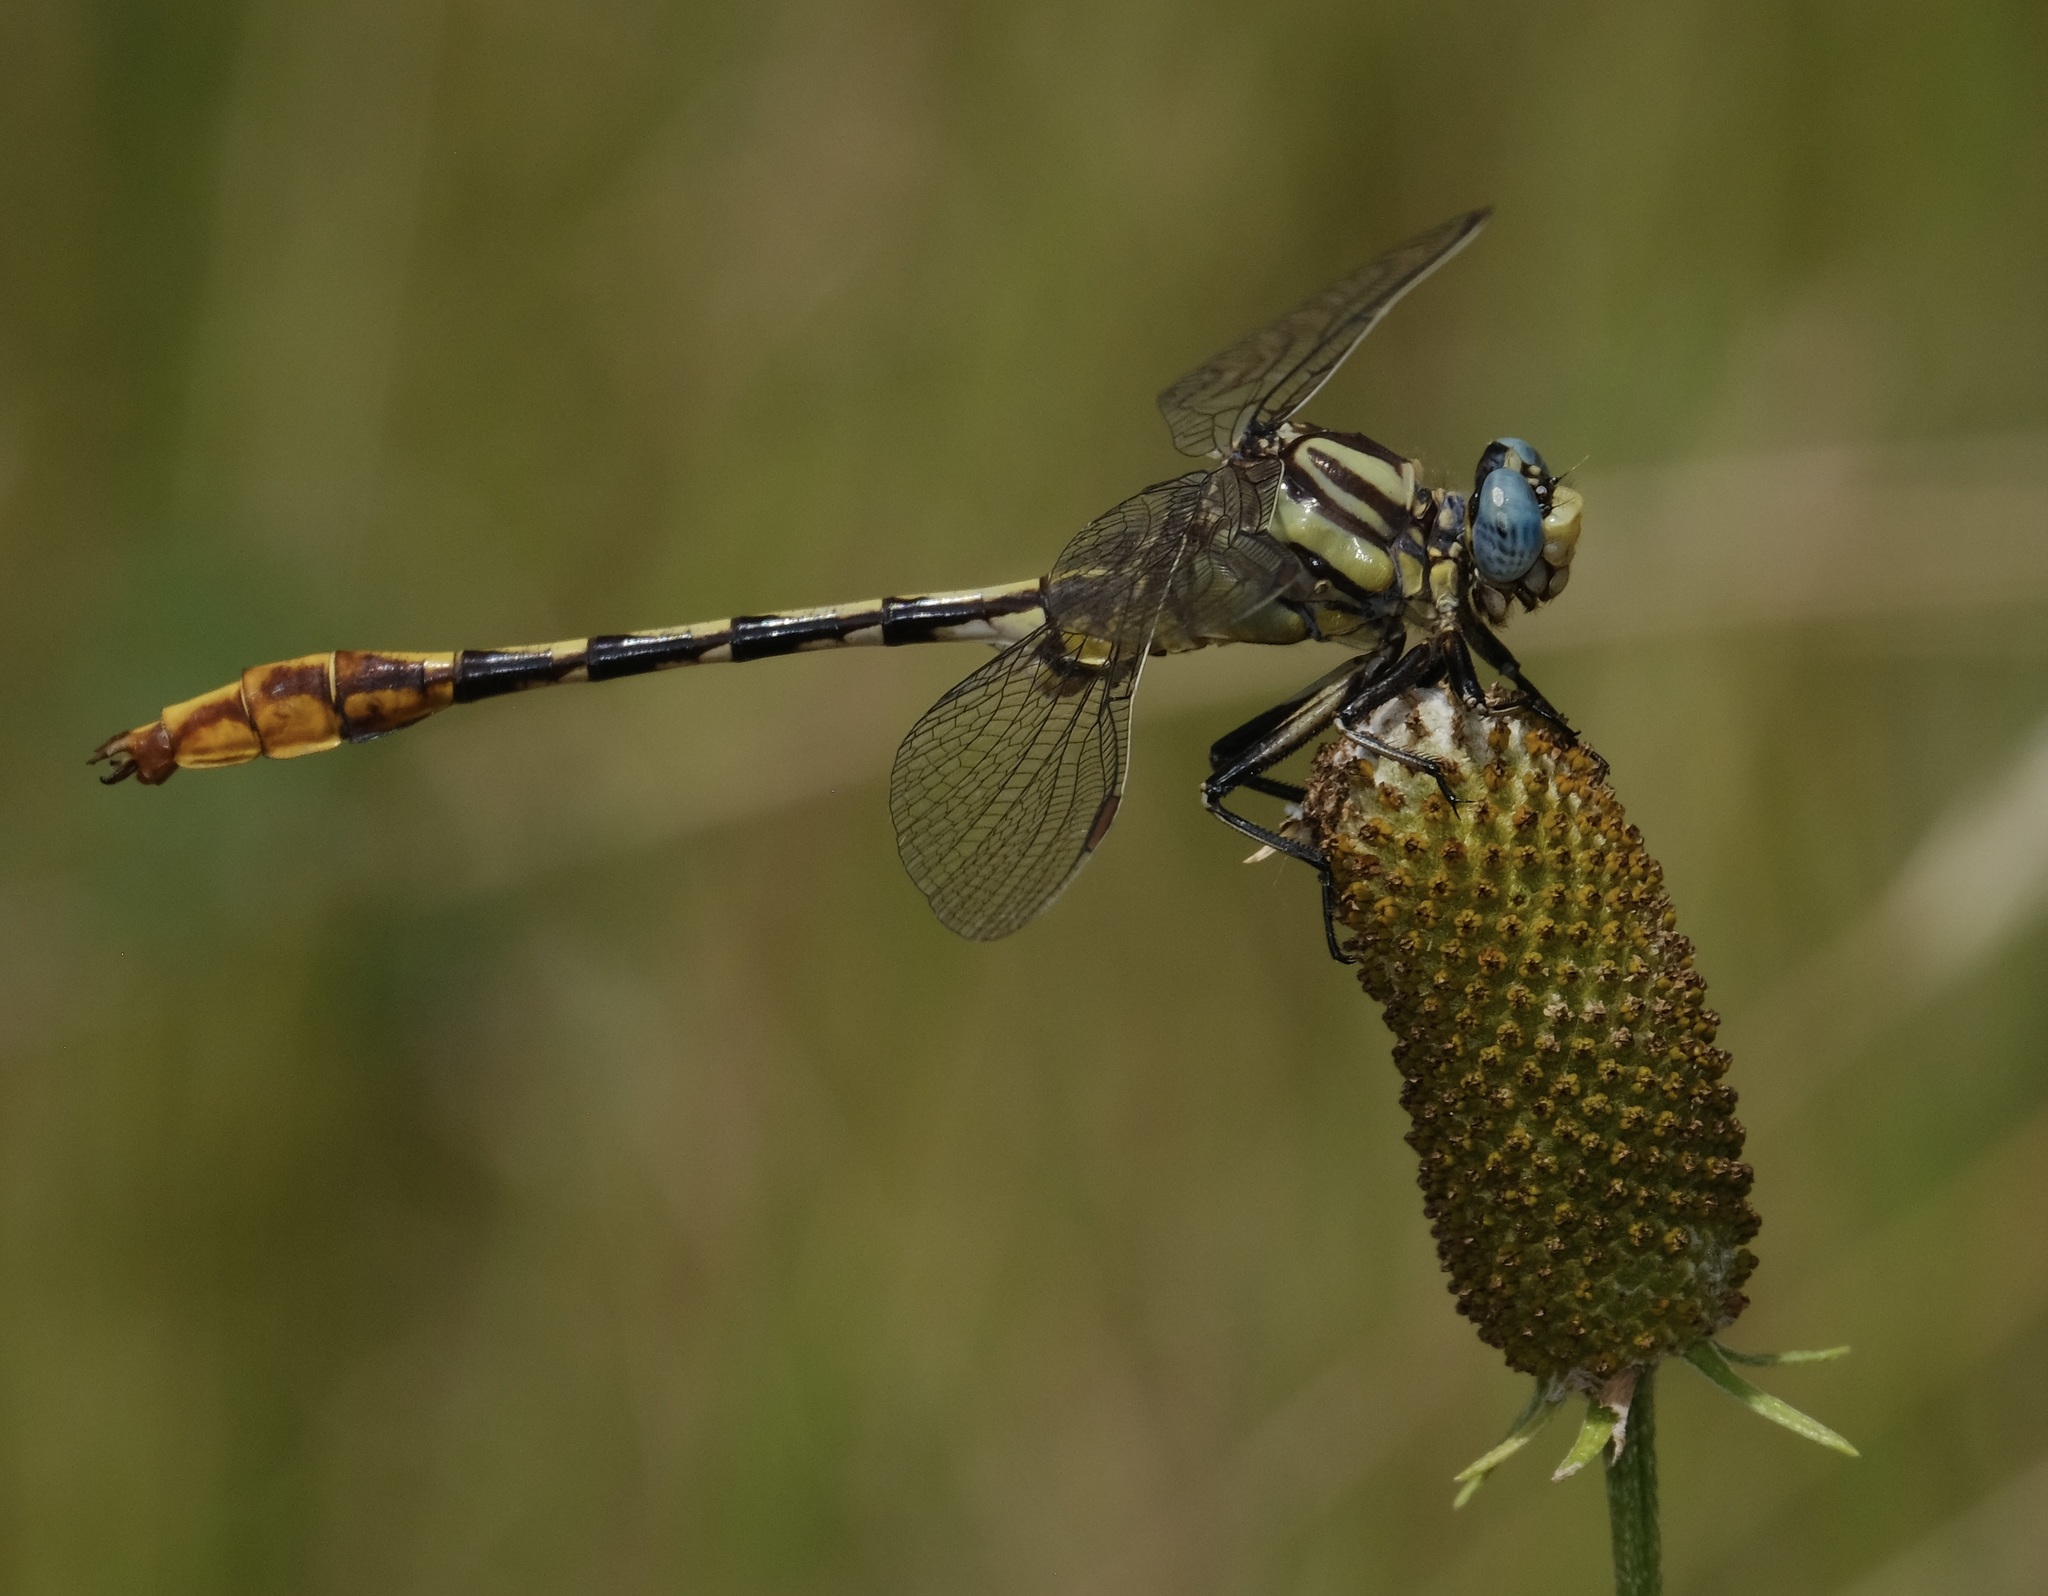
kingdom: Animalia
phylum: Arthropoda
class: Insecta
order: Odonata
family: Gomphidae
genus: Phanogomphus
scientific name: Phanogomphus militaris
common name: Sulphur-tipped clubtail
